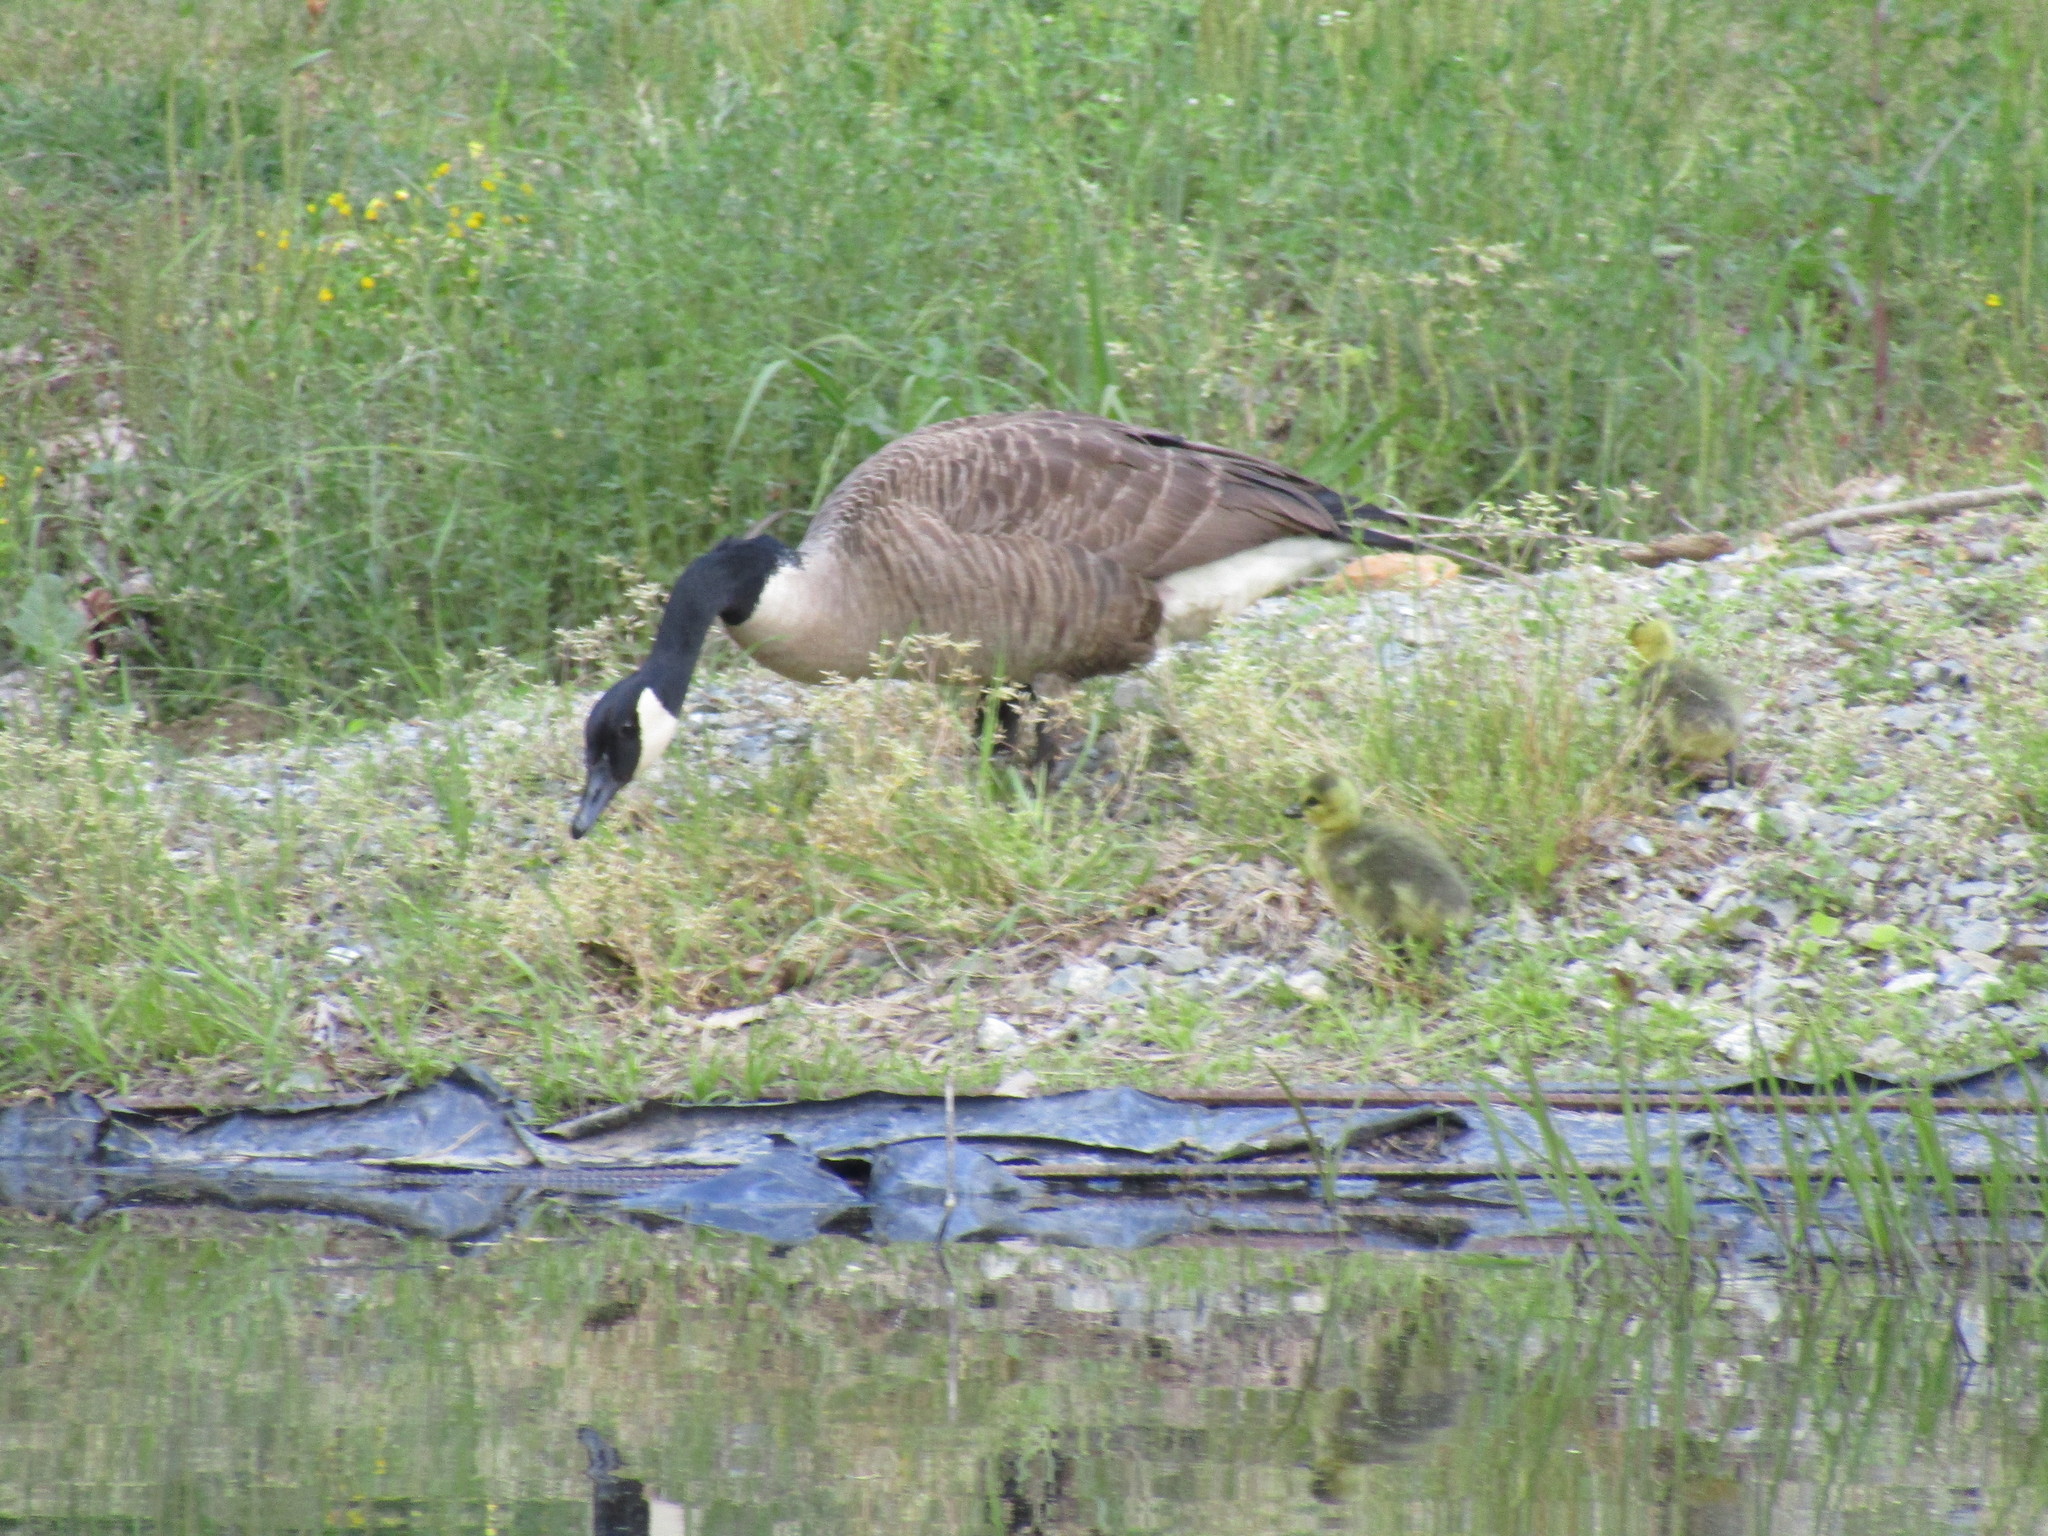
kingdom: Animalia
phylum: Chordata
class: Aves
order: Anseriformes
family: Anatidae
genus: Branta
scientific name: Branta canadensis
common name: Canada goose
